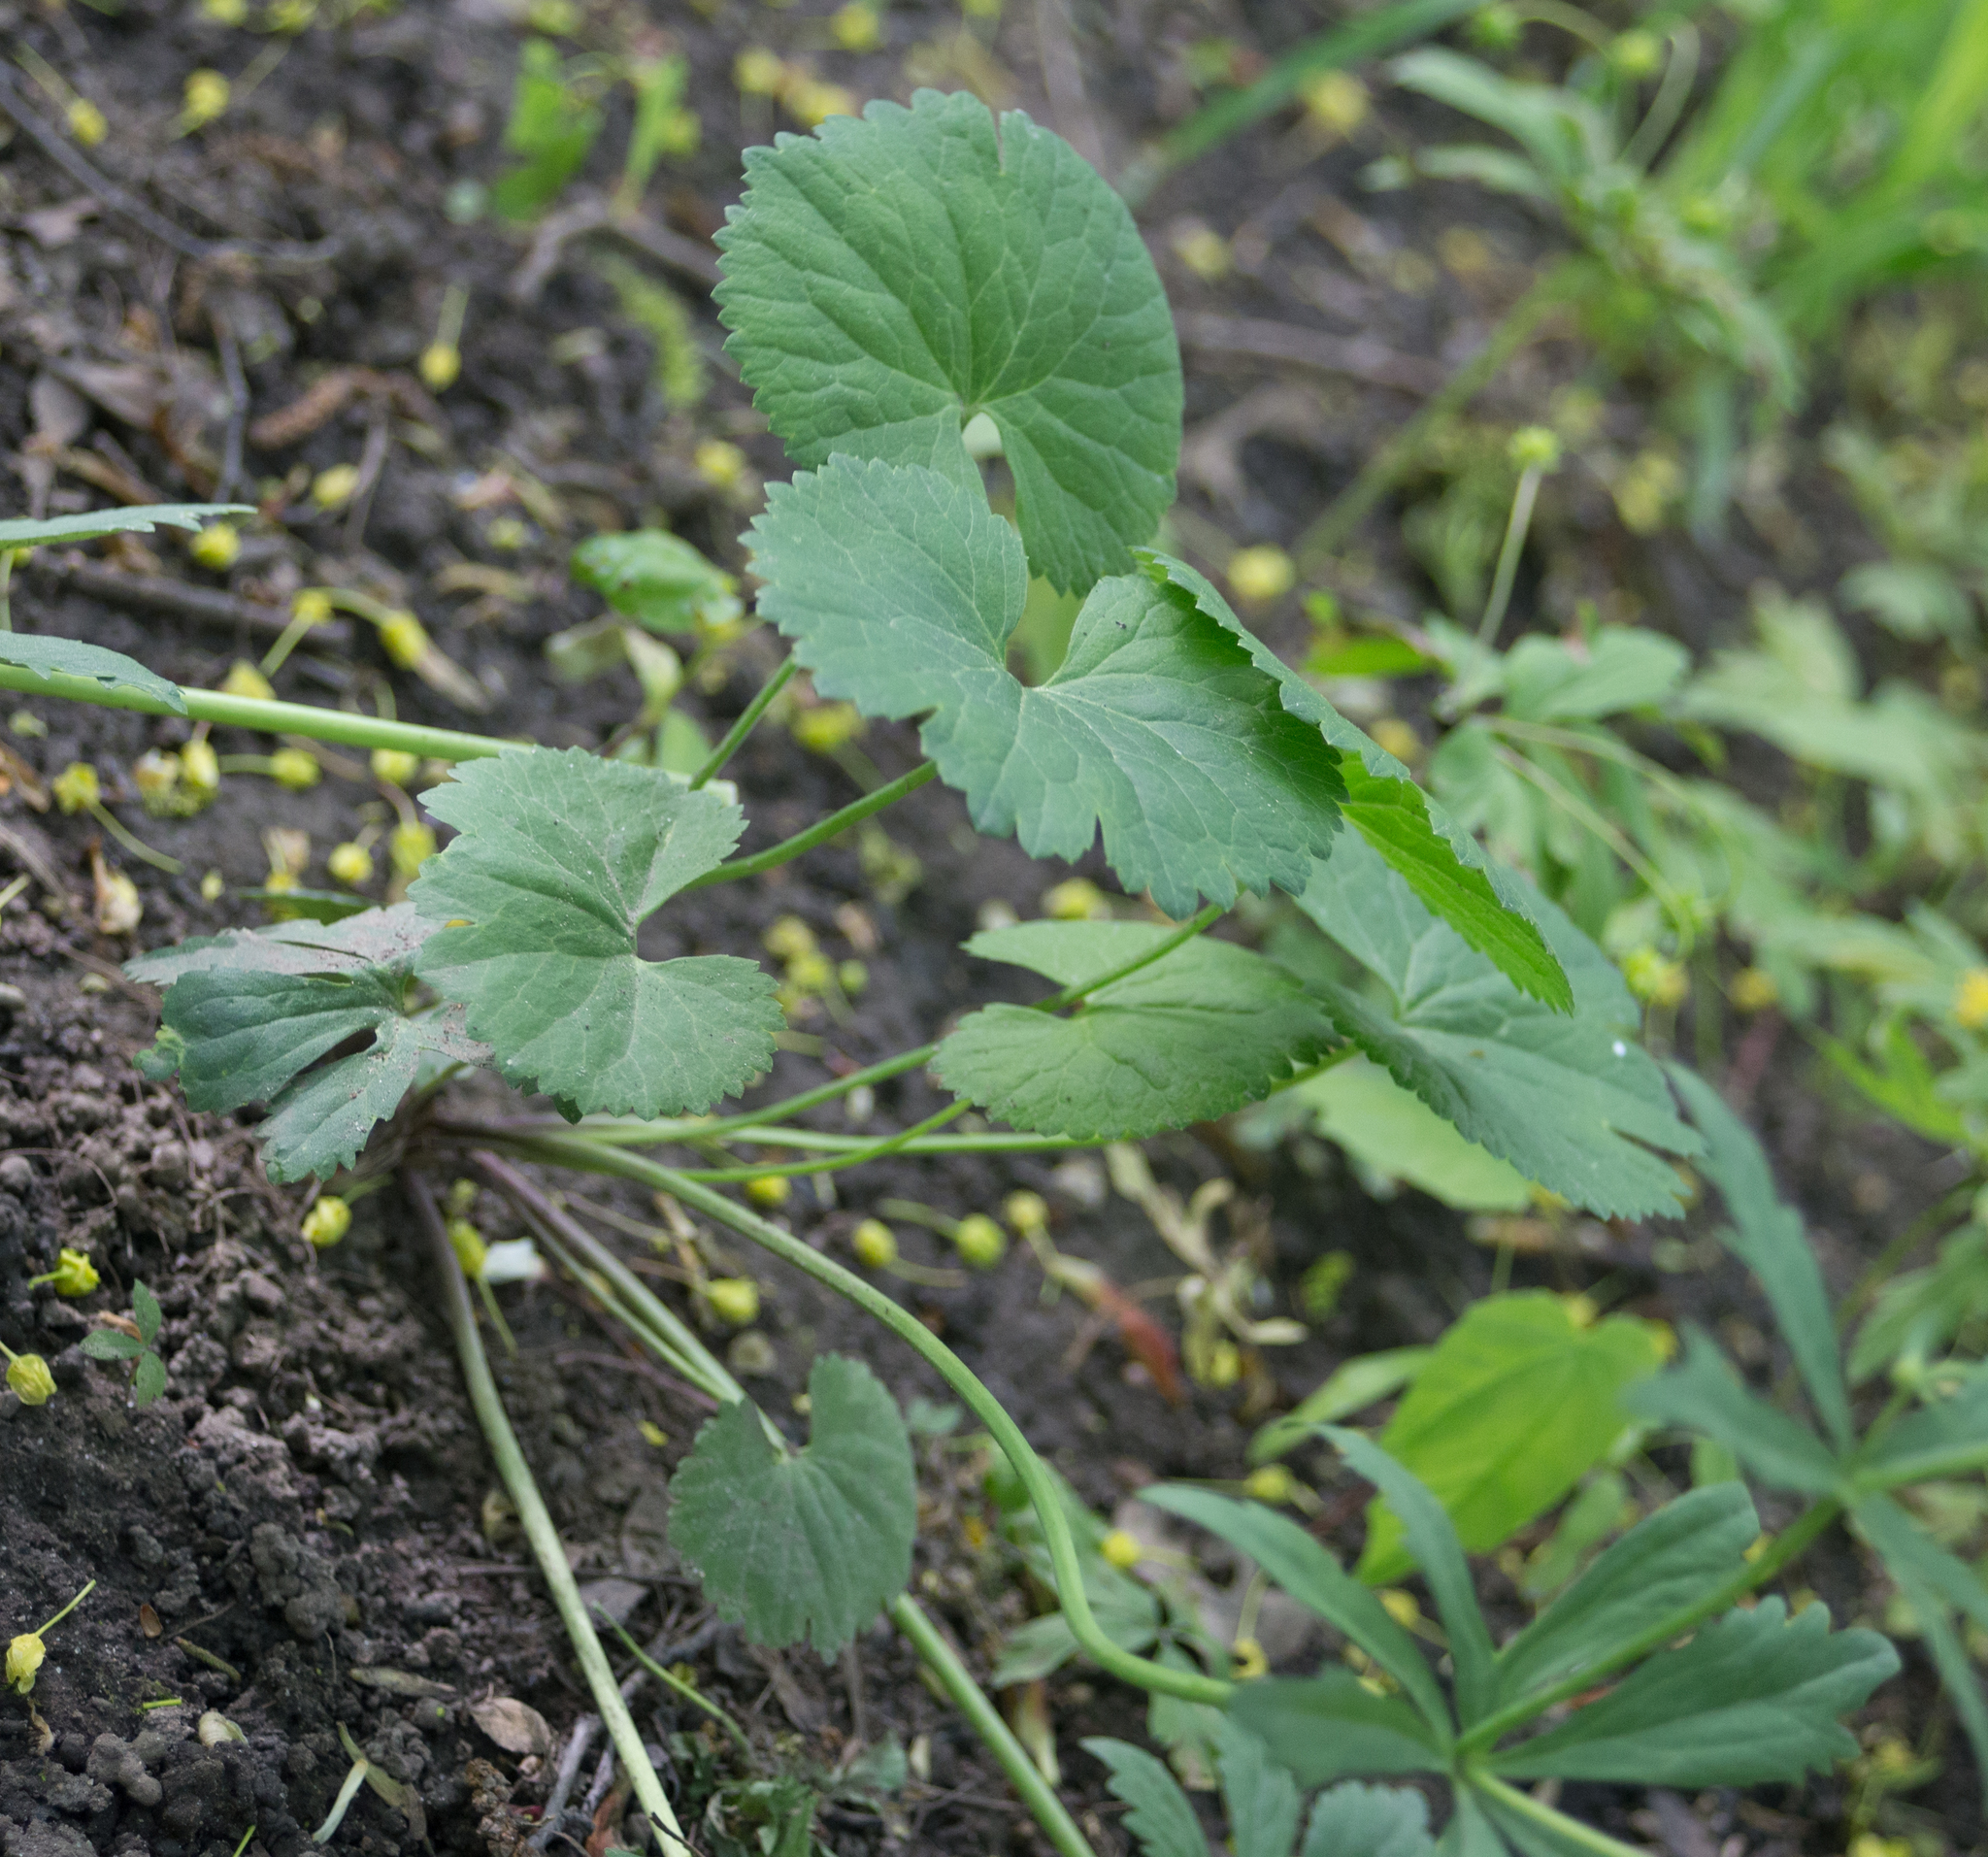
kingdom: Plantae
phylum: Tracheophyta
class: Magnoliopsida
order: Ranunculales
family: Ranunculaceae
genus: Ranunculus
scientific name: Ranunculus cassubicus
